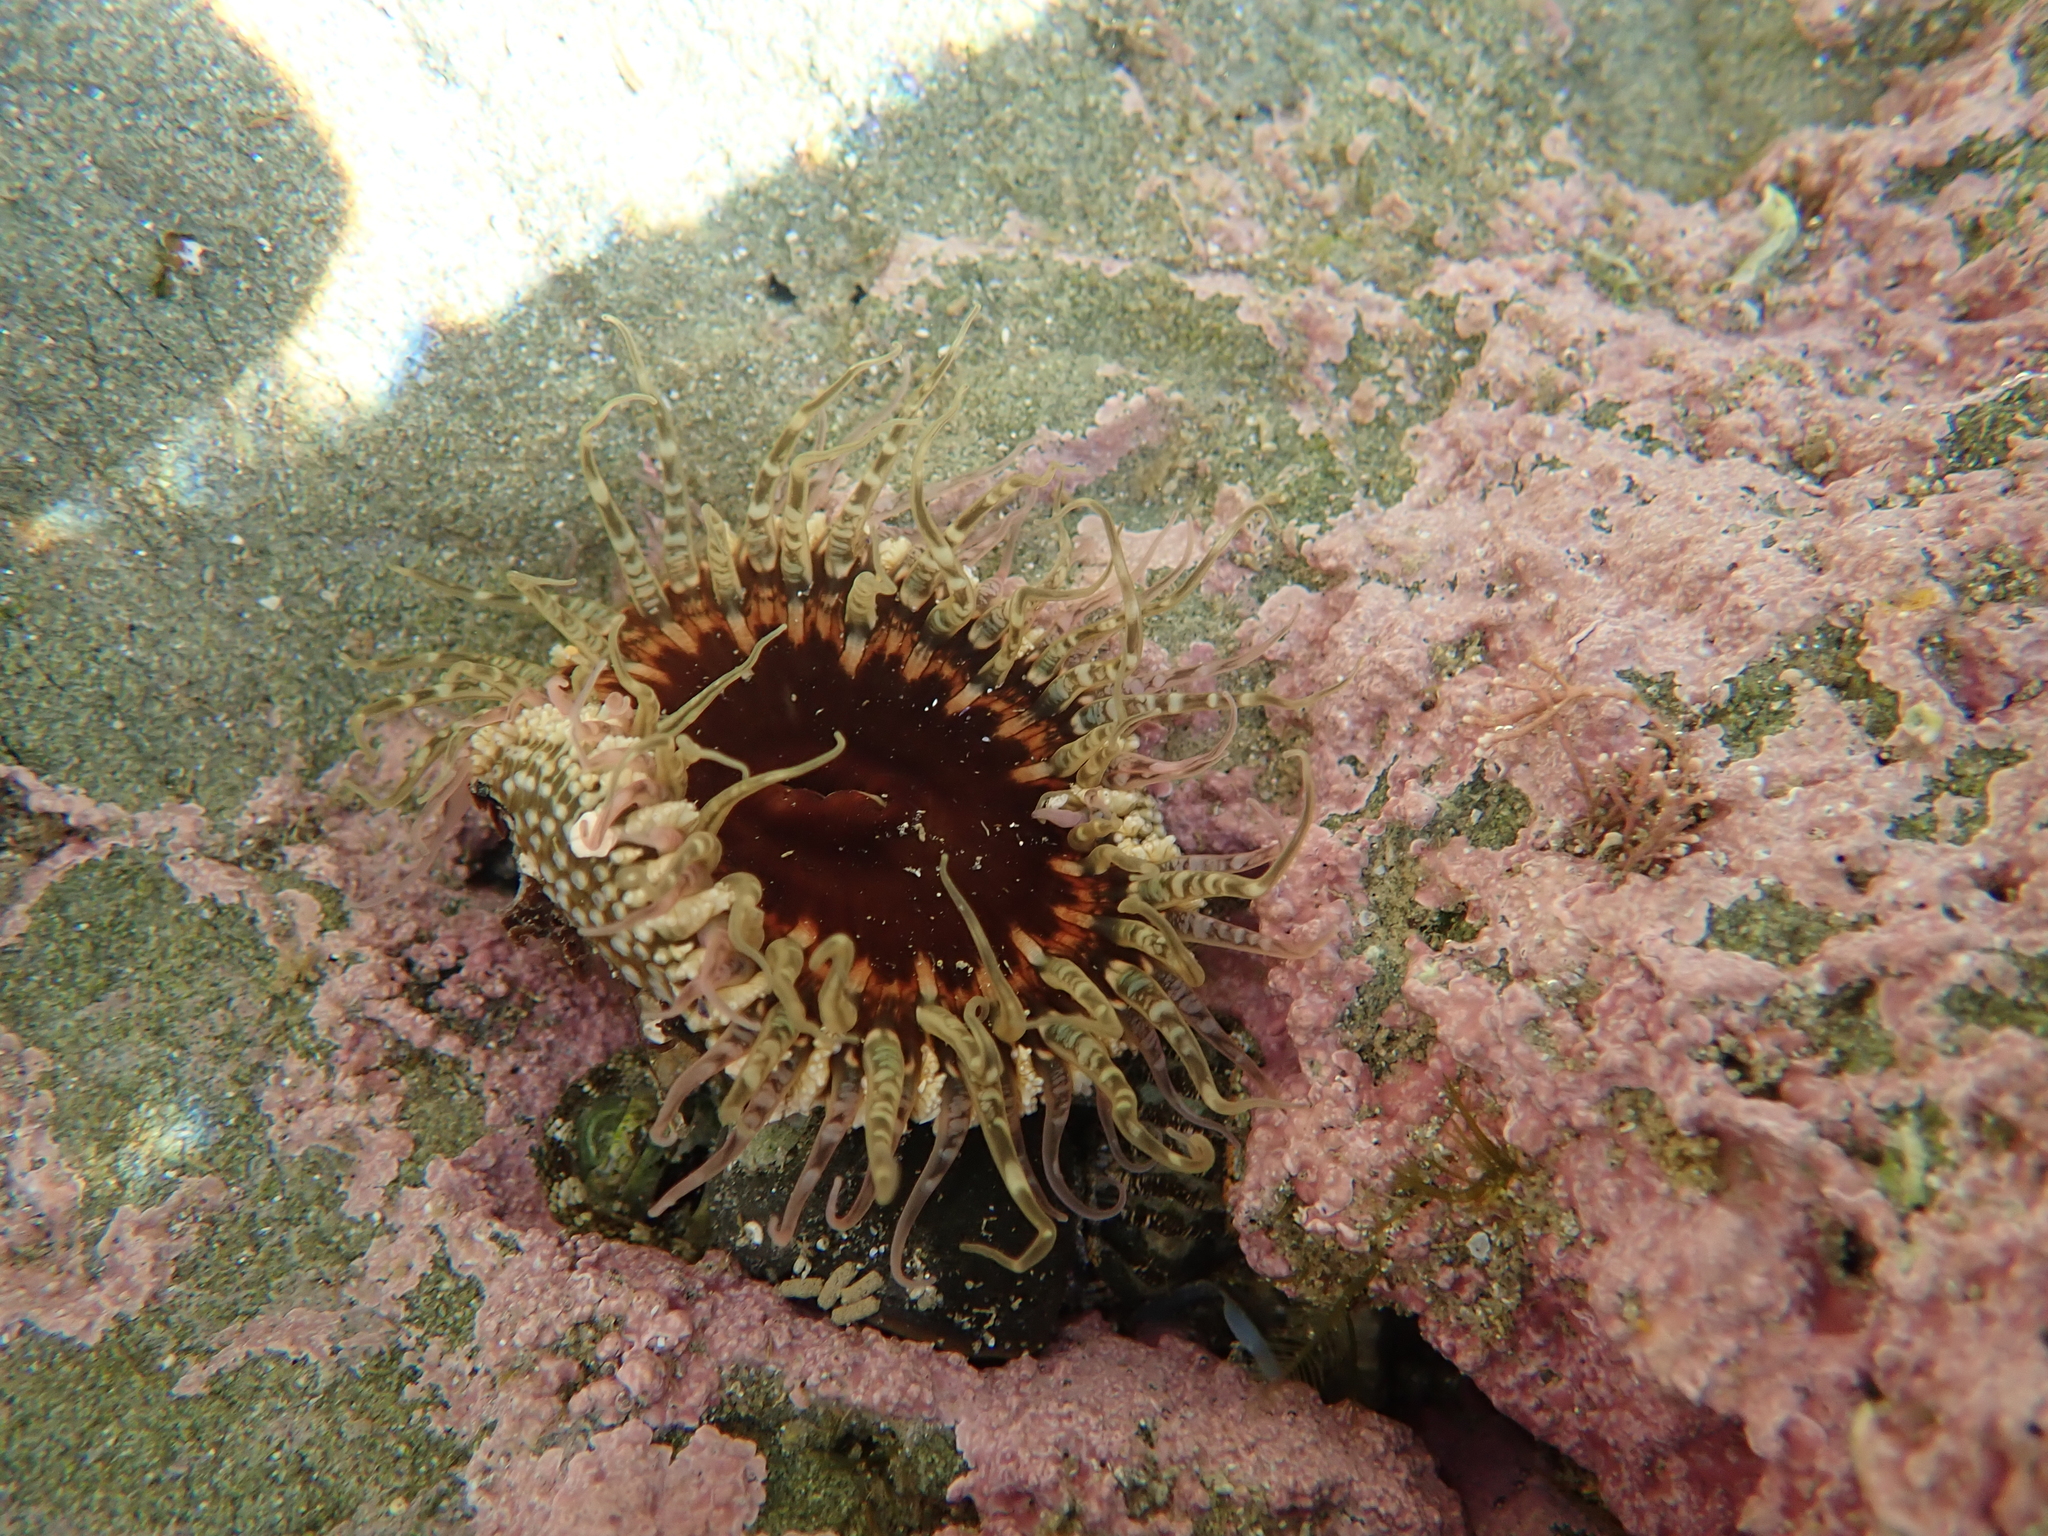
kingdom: Animalia
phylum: Cnidaria
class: Anthozoa
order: Actiniaria
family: Actiniidae
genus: Oulactis
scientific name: Oulactis muscosa
